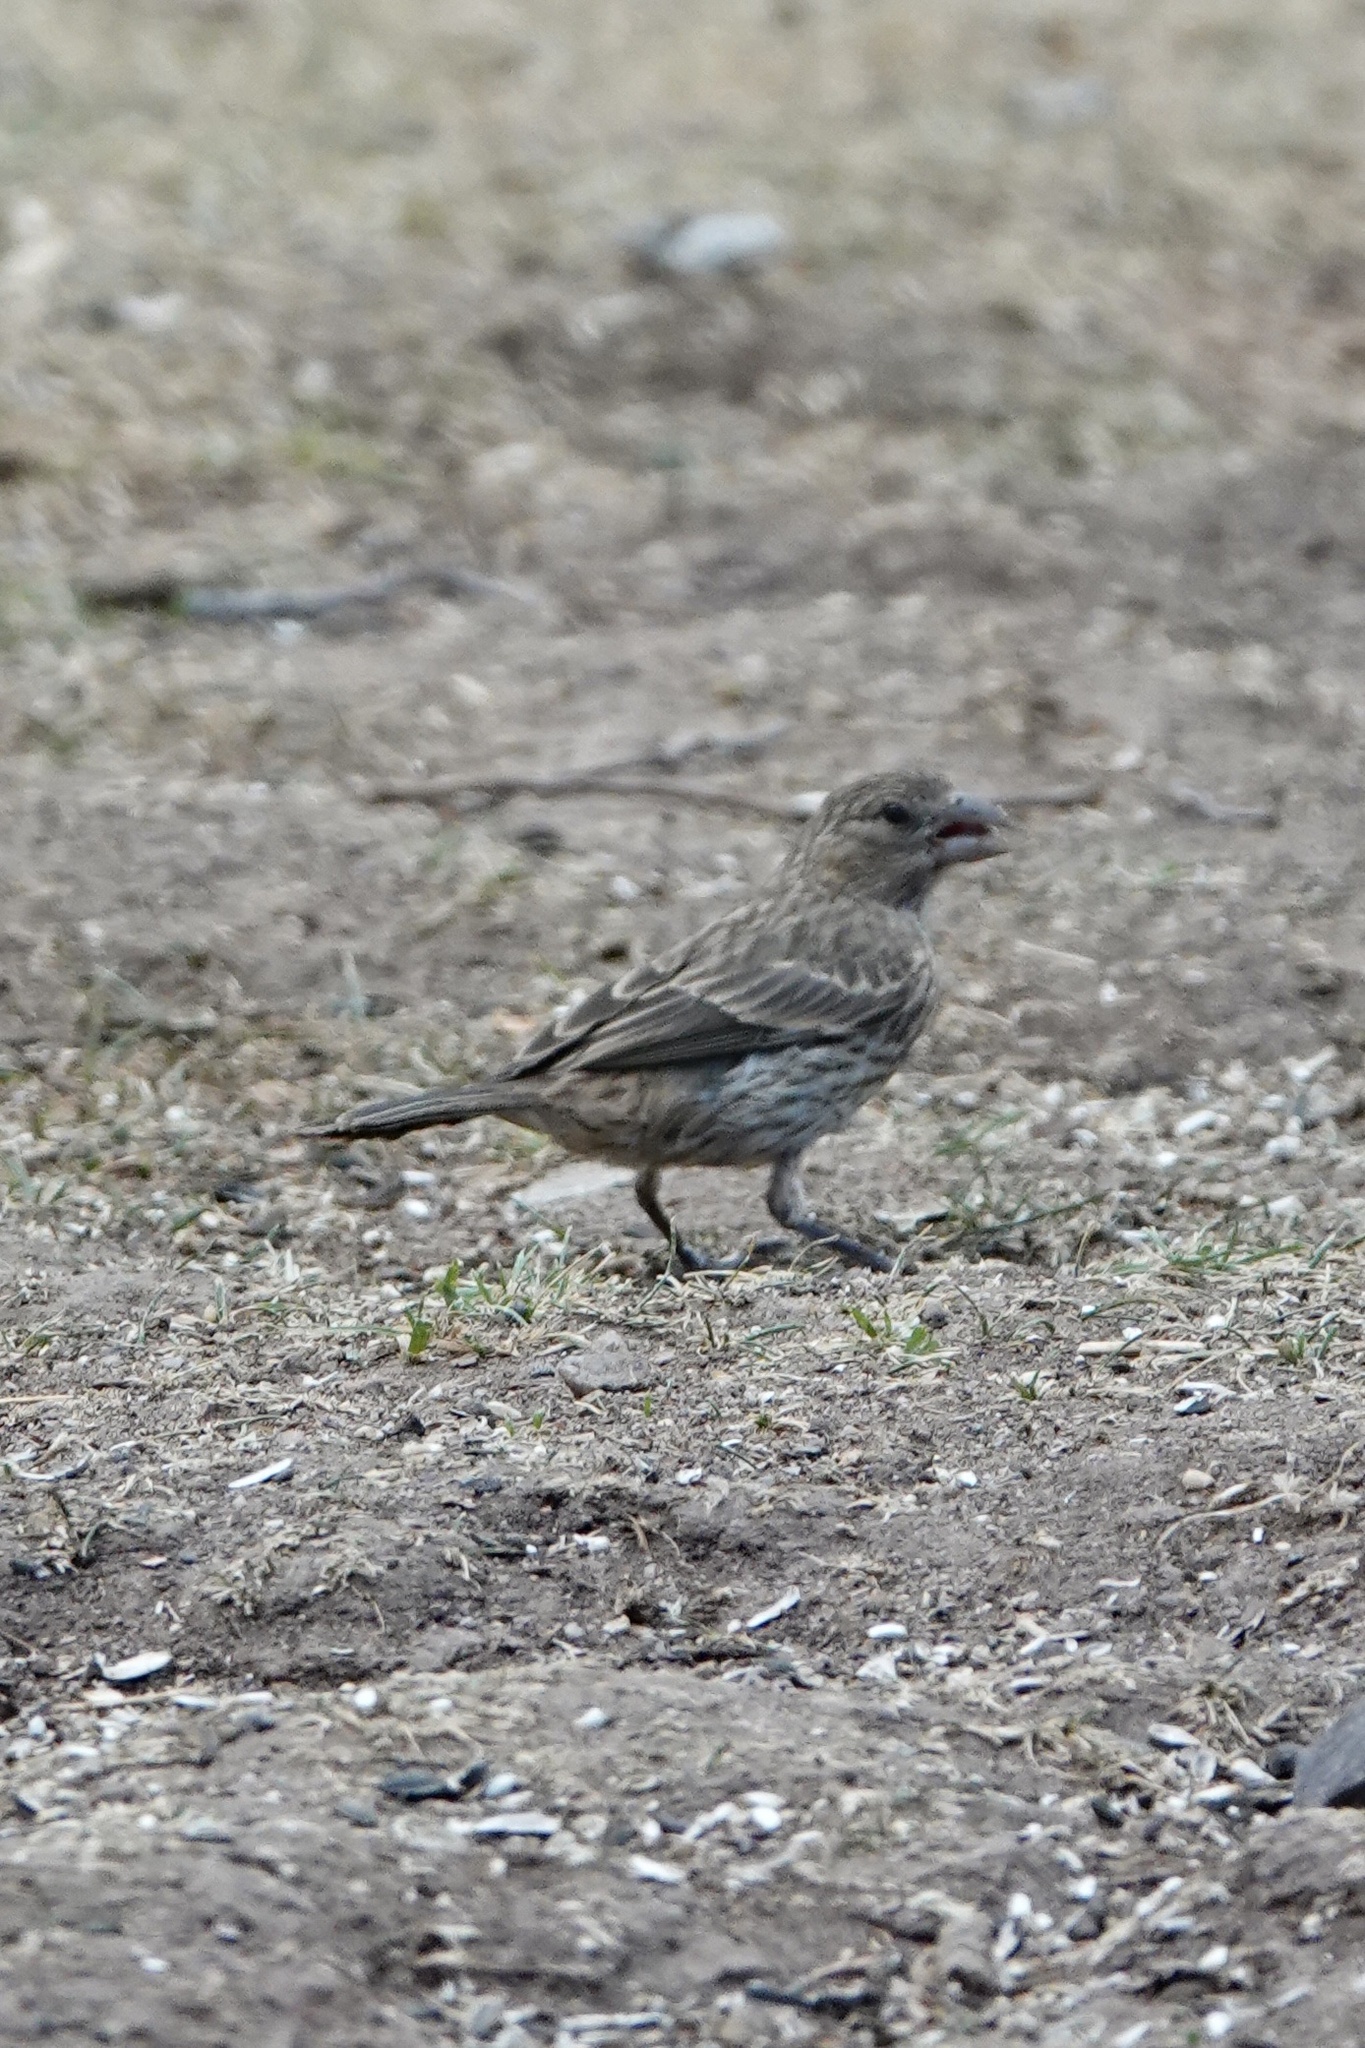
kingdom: Animalia
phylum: Chordata
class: Aves
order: Passeriformes
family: Fringillidae
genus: Haemorhous
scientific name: Haemorhous mexicanus
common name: House finch
